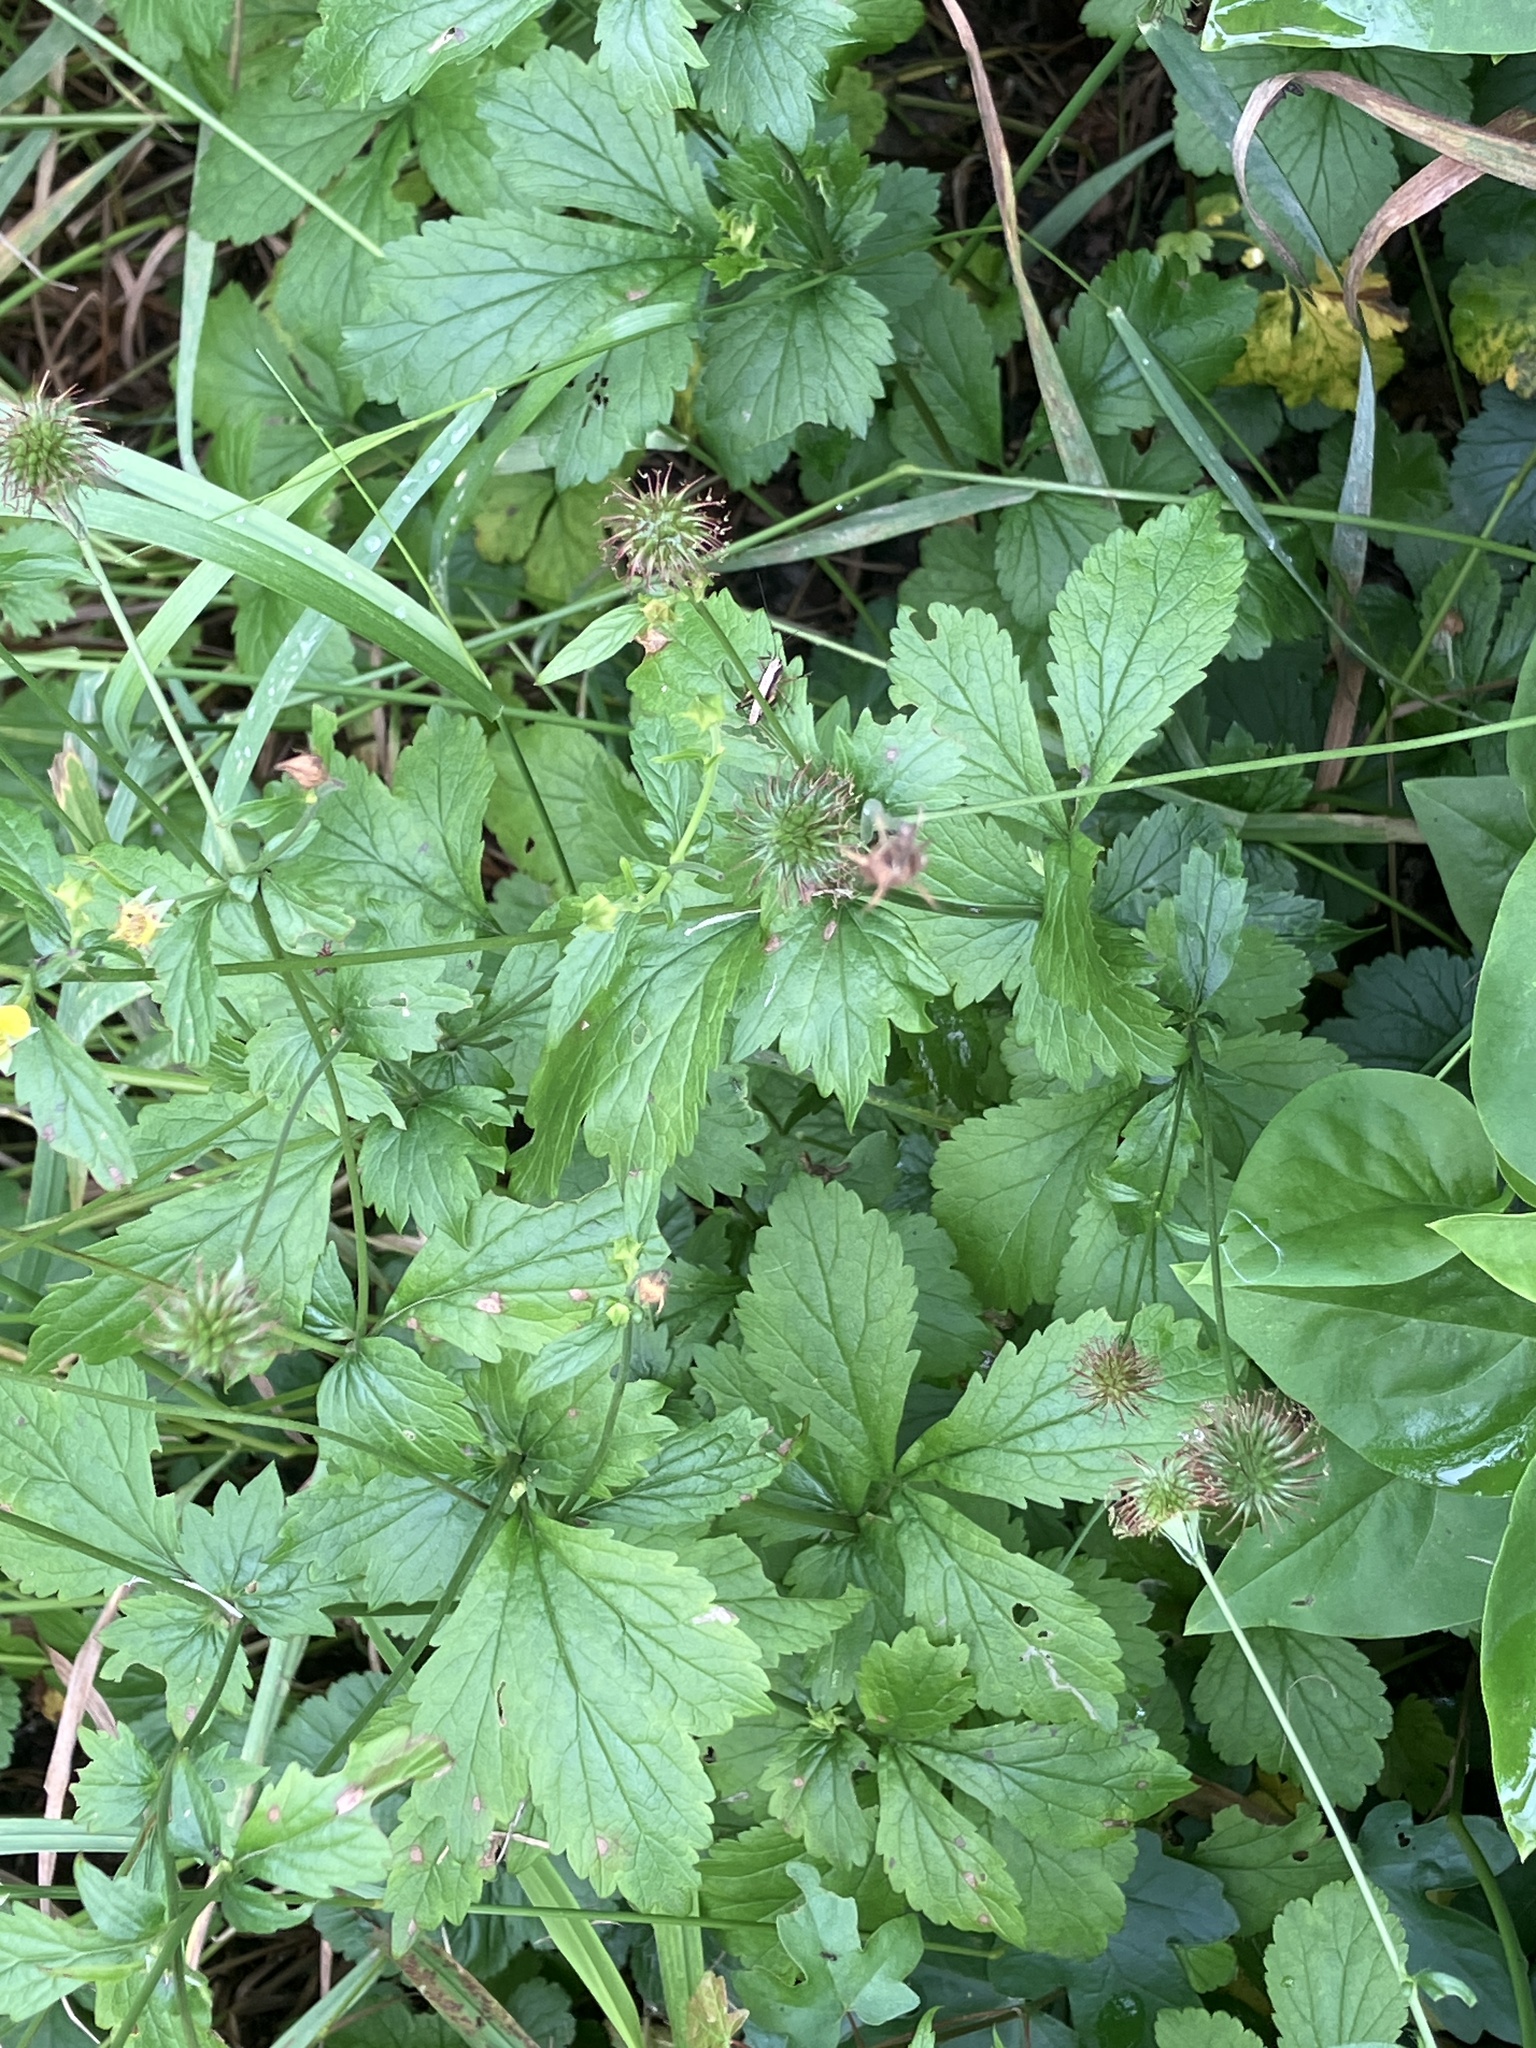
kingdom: Plantae
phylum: Tracheophyta
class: Magnoliopsida
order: Rosales
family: Rosaceae
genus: Geum
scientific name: Geum urbanum
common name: Wood avens
